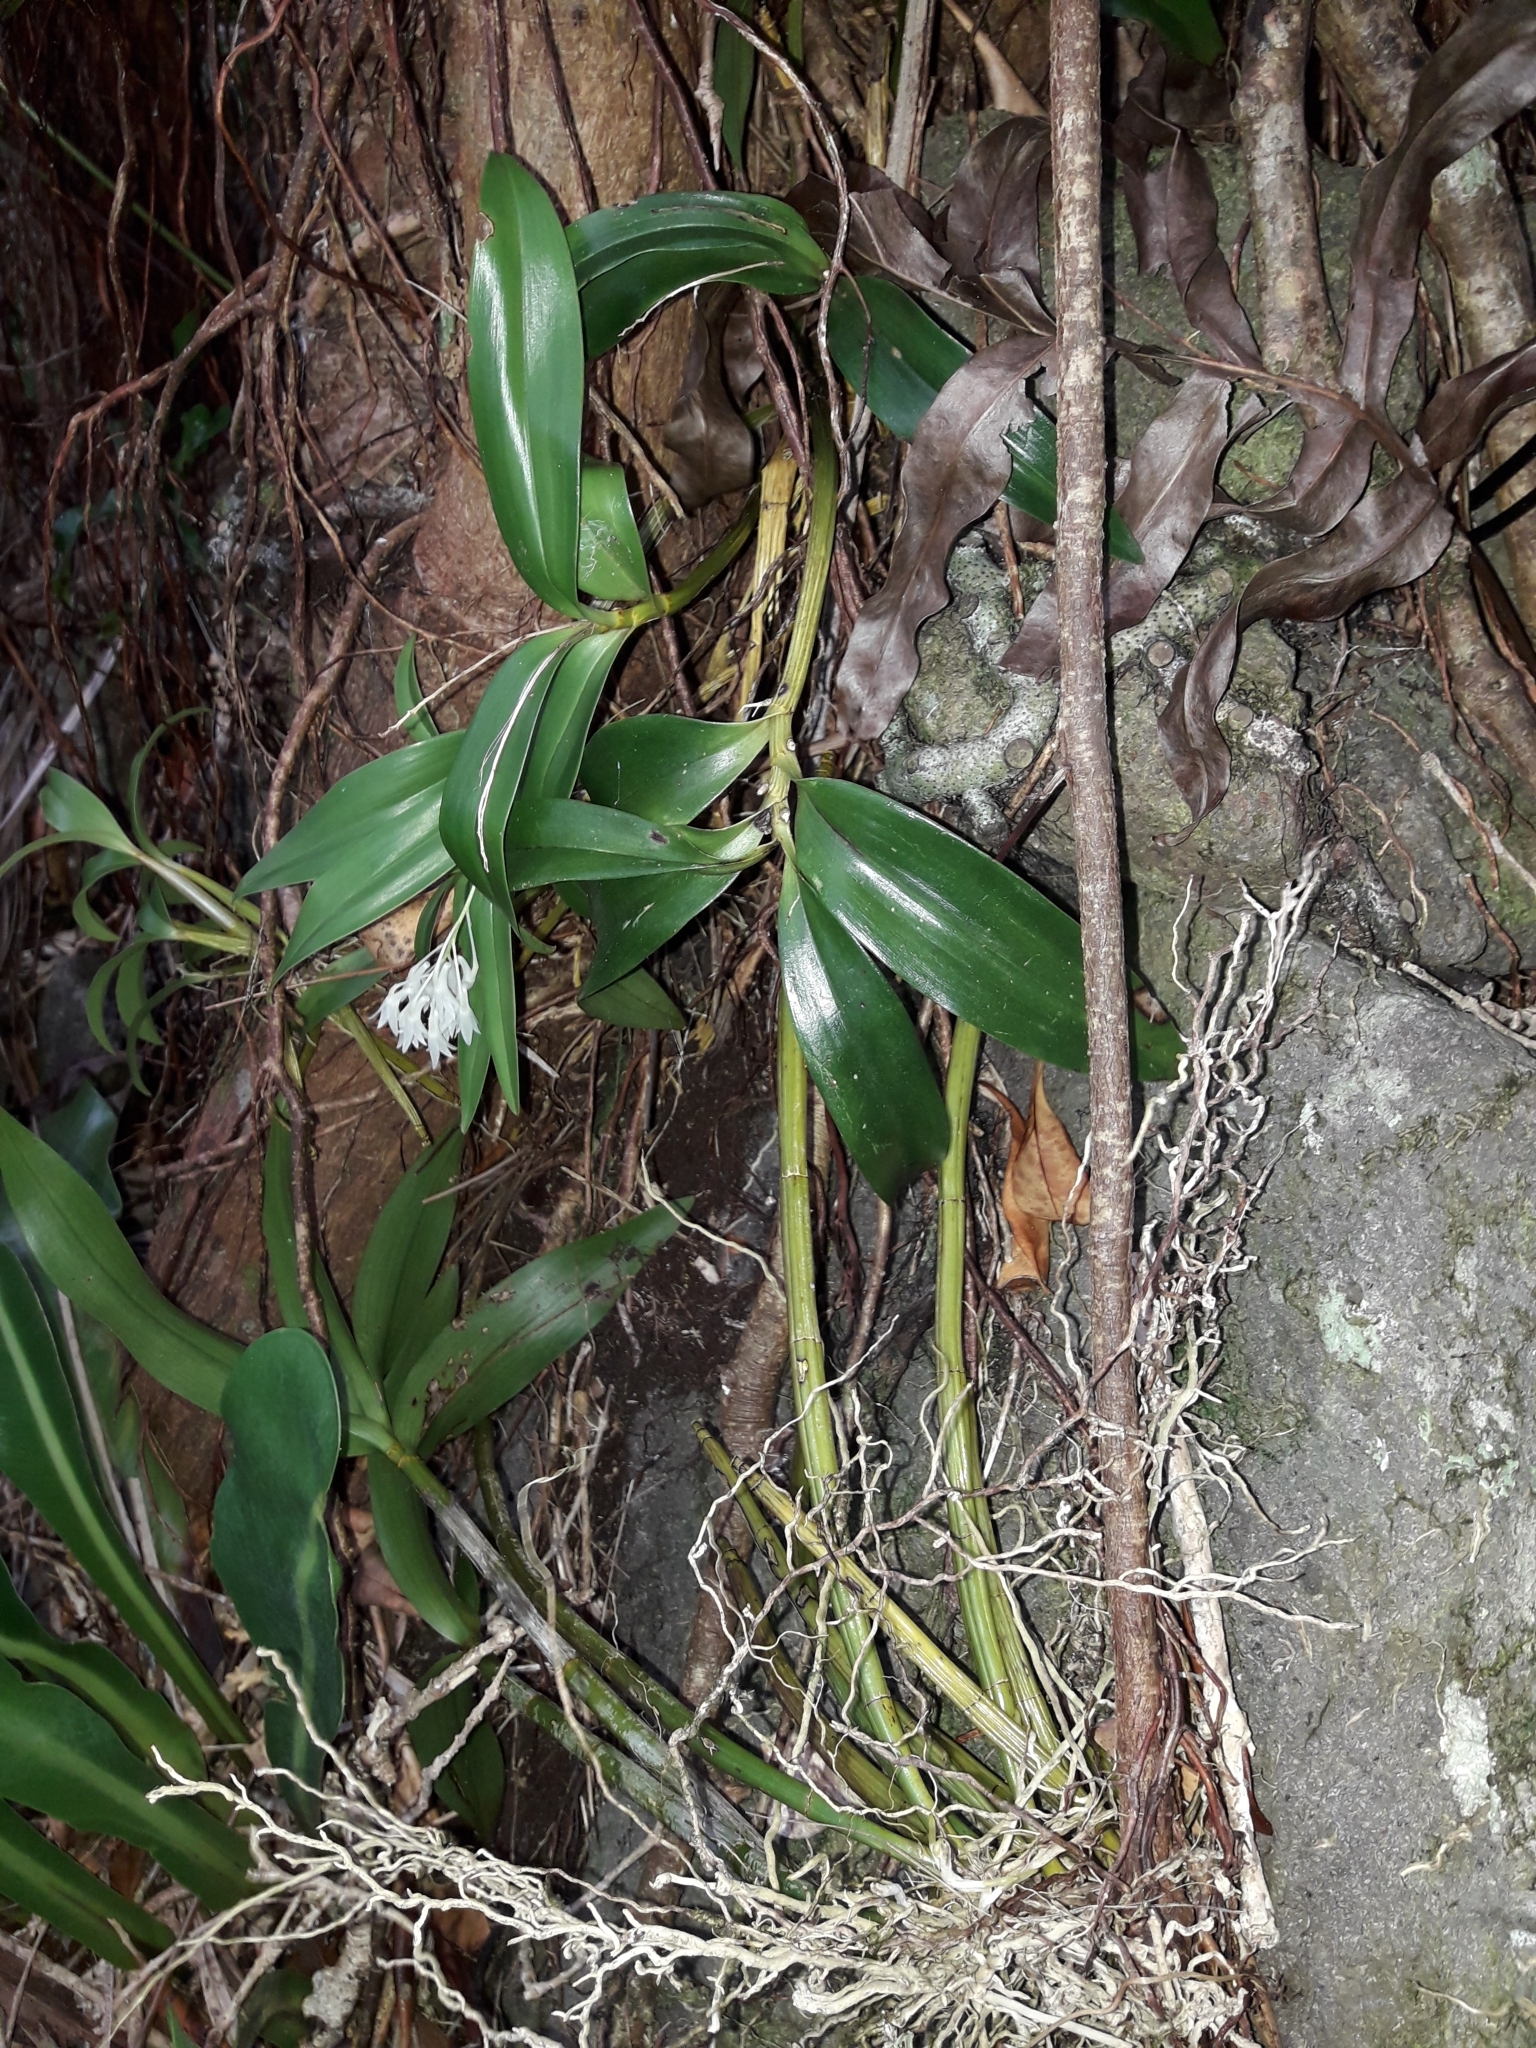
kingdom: Plantae
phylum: Tracheophyta
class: Liliopsida
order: Asparagales
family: Orchidaceae
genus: Dendrobium
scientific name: Dendrobium moorei
